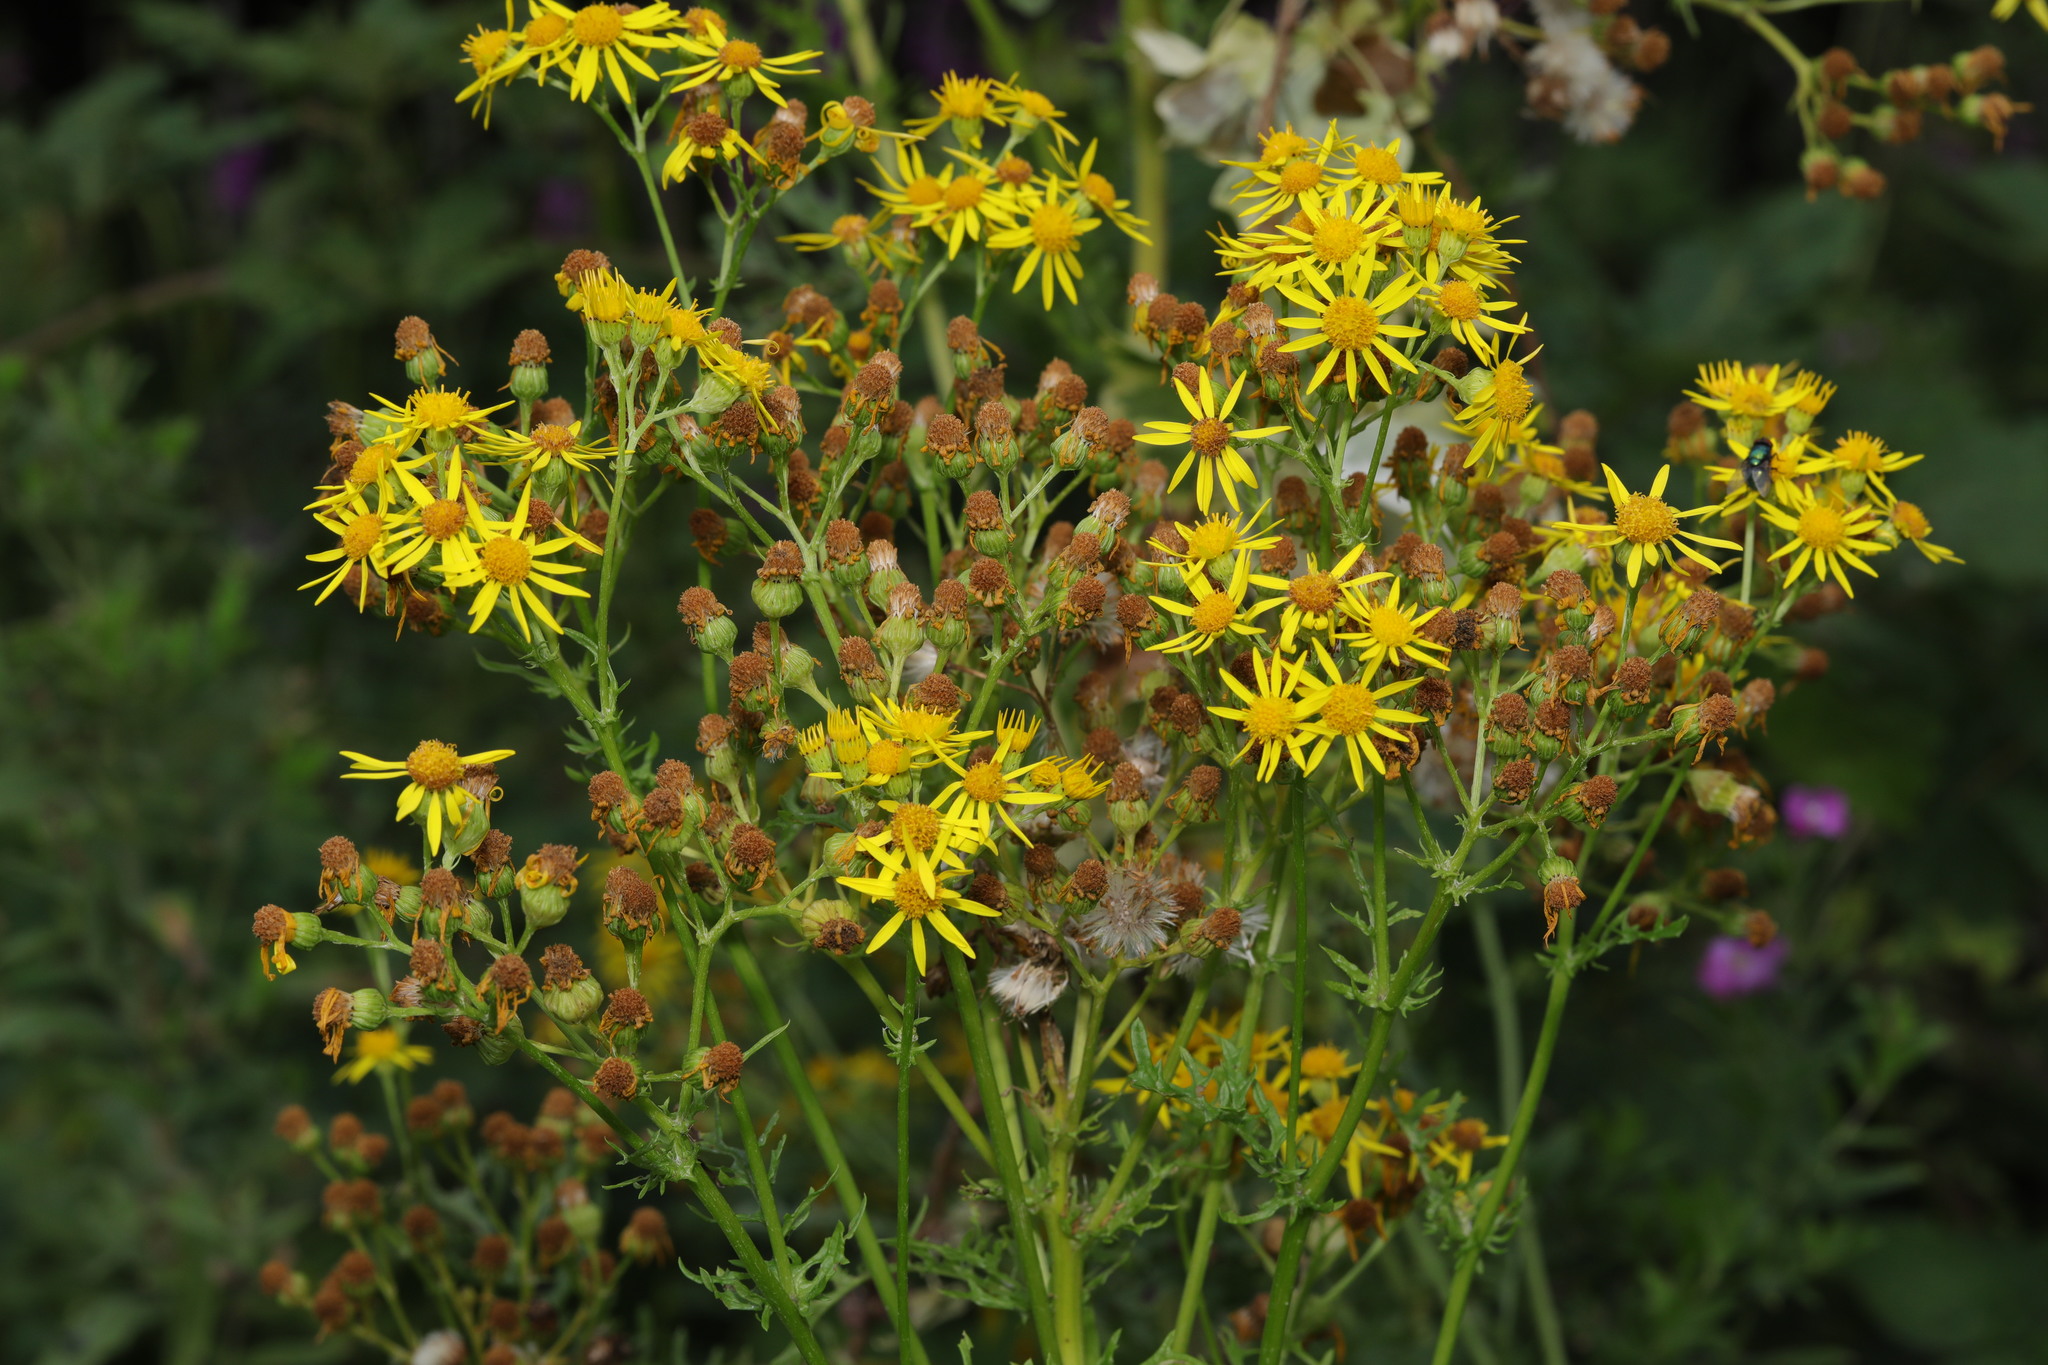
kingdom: Plantae
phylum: Tracheophyta
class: Magnoliopsida
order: Asterales
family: Asteraceae
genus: Jacobaea
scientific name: Jacobaea vulgaris
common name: Stinking willie
